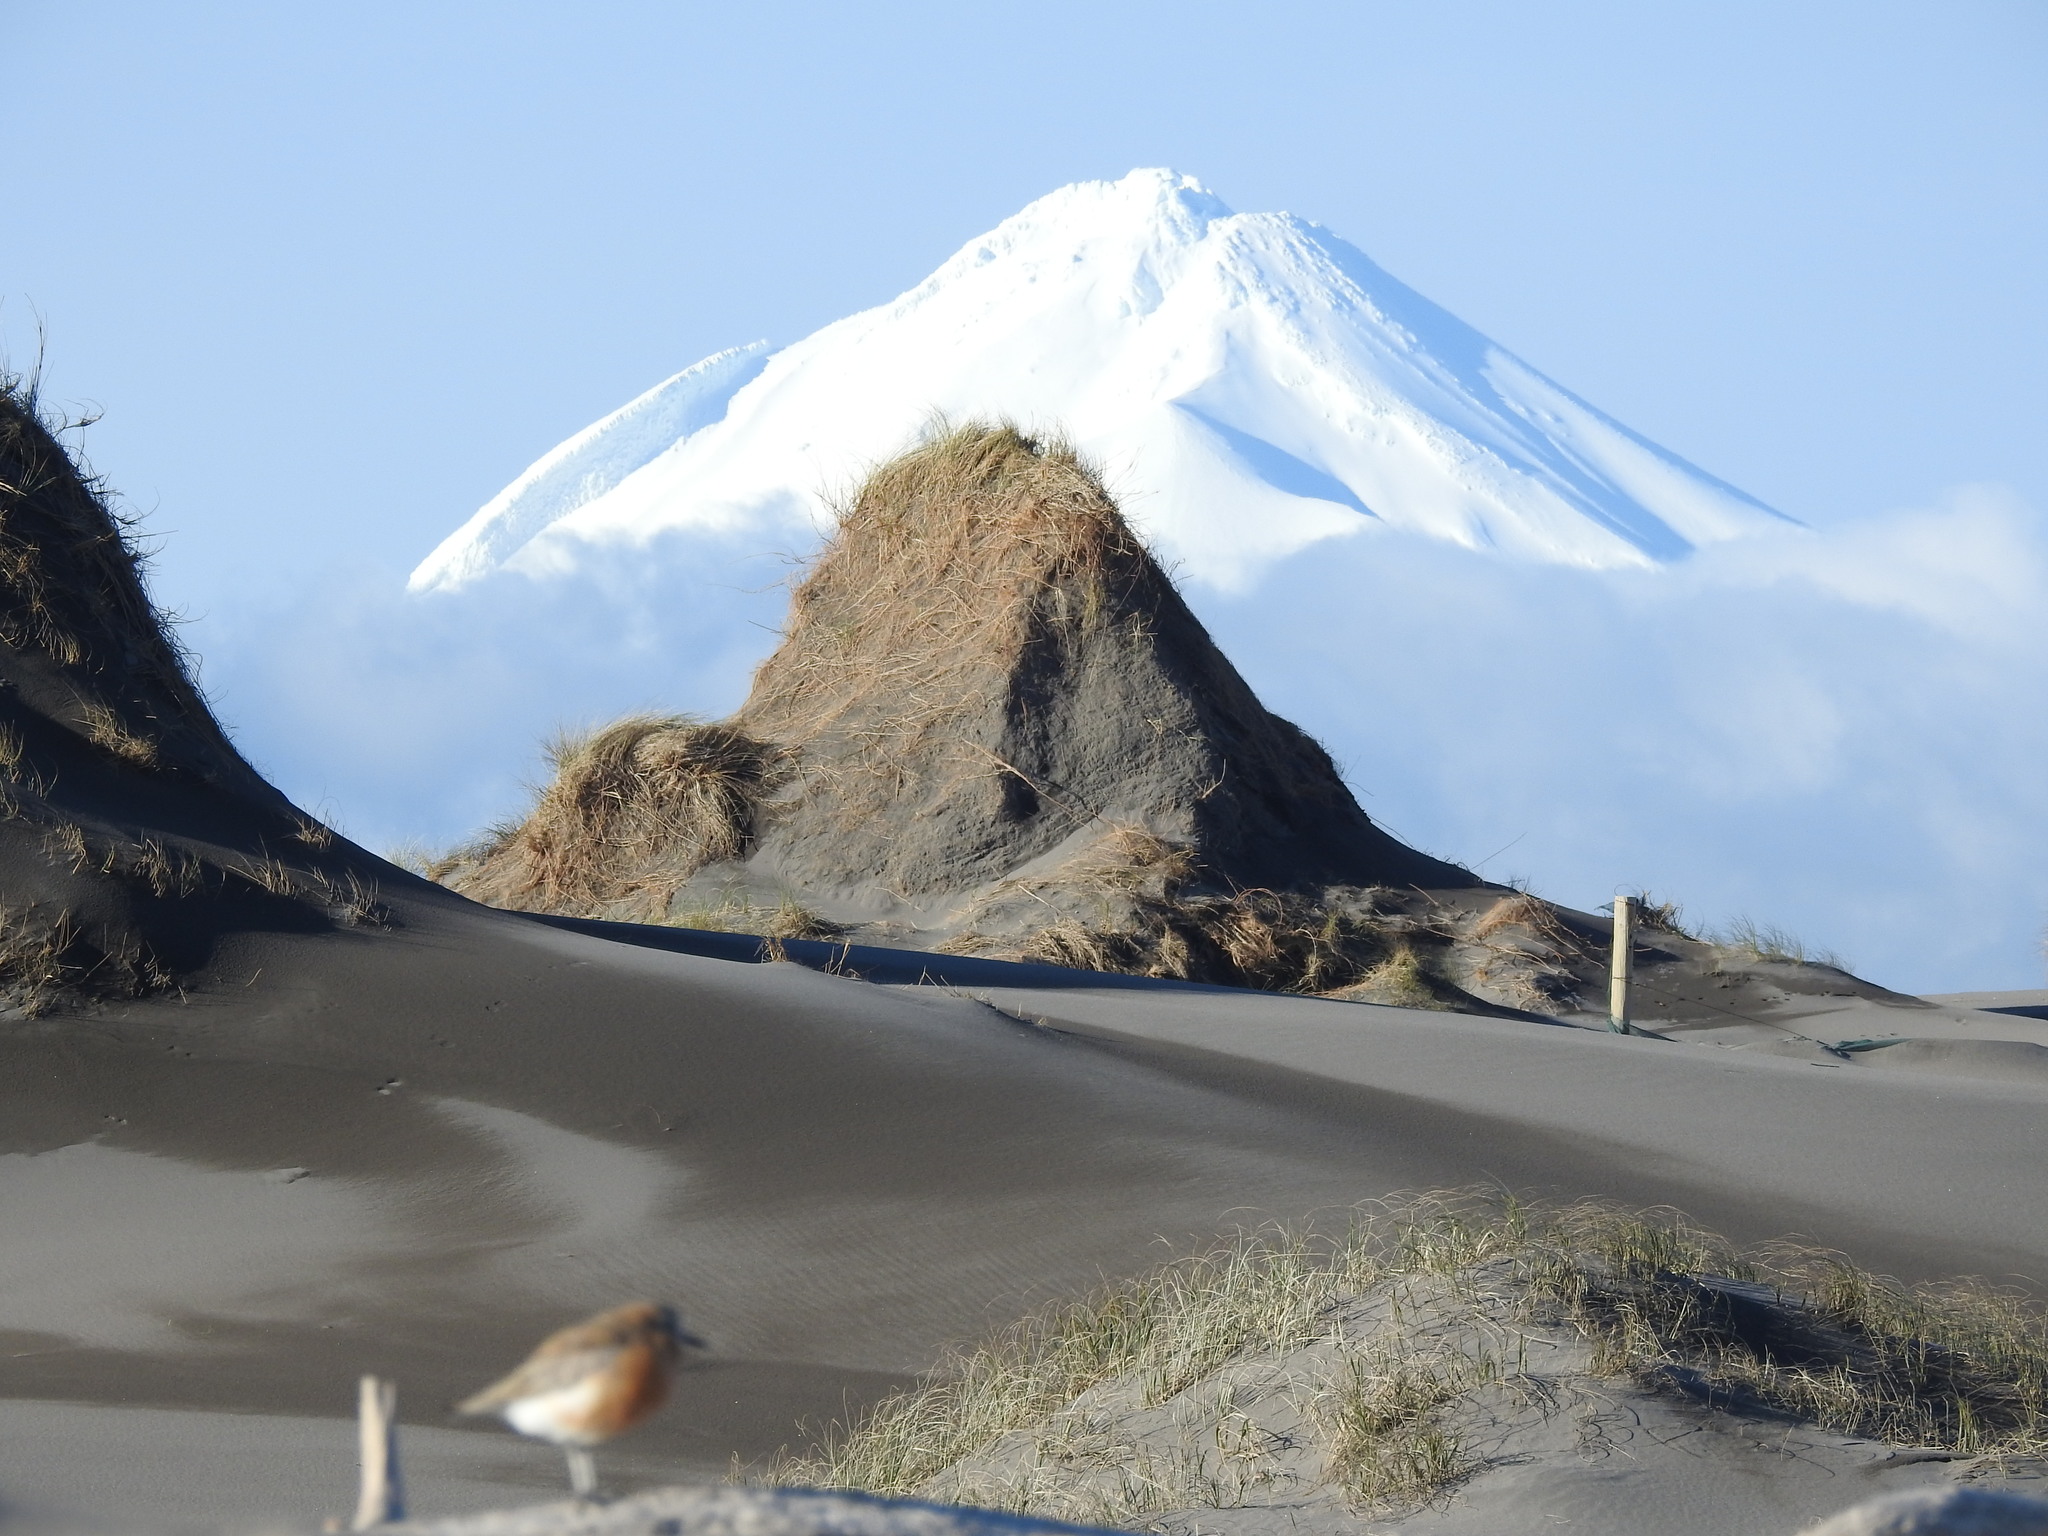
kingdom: Animalia
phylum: Chordata
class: Aves
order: Charadriiformes
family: Charadriidae
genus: Anarhynchus
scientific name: Anarhynchus
